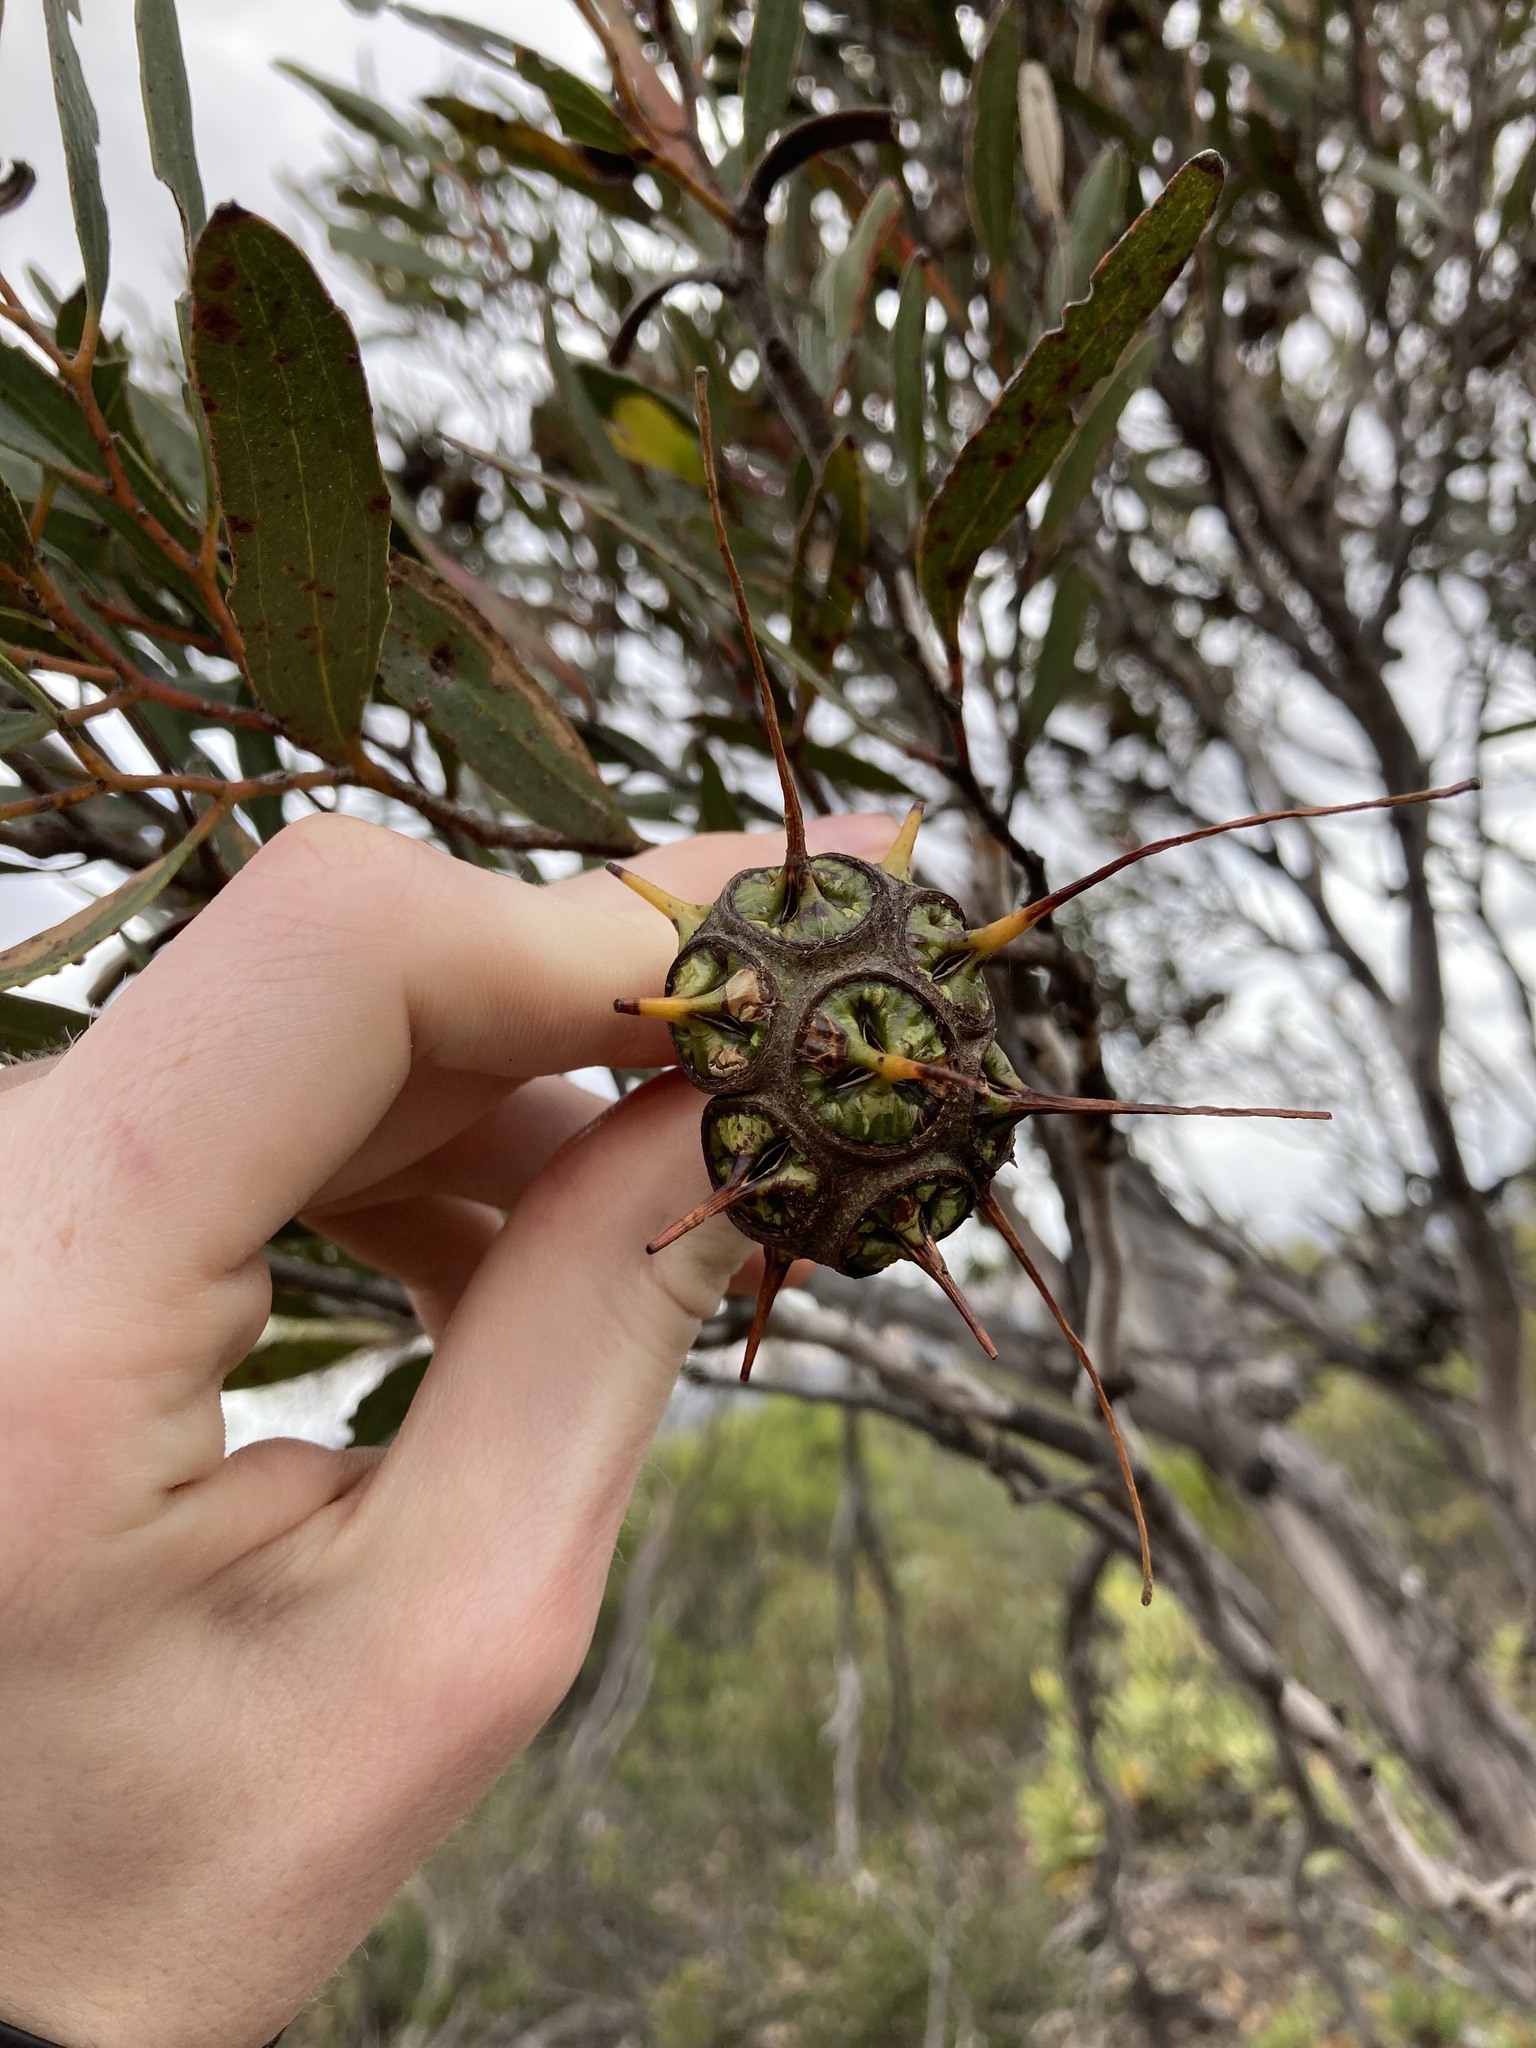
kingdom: Plantae
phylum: Tracheophyta
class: Magnoliopsida
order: Myrtales
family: Myrtaceae
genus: Eucalyptus
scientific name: Eucalyptus lehmannii
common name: Bushy yate
